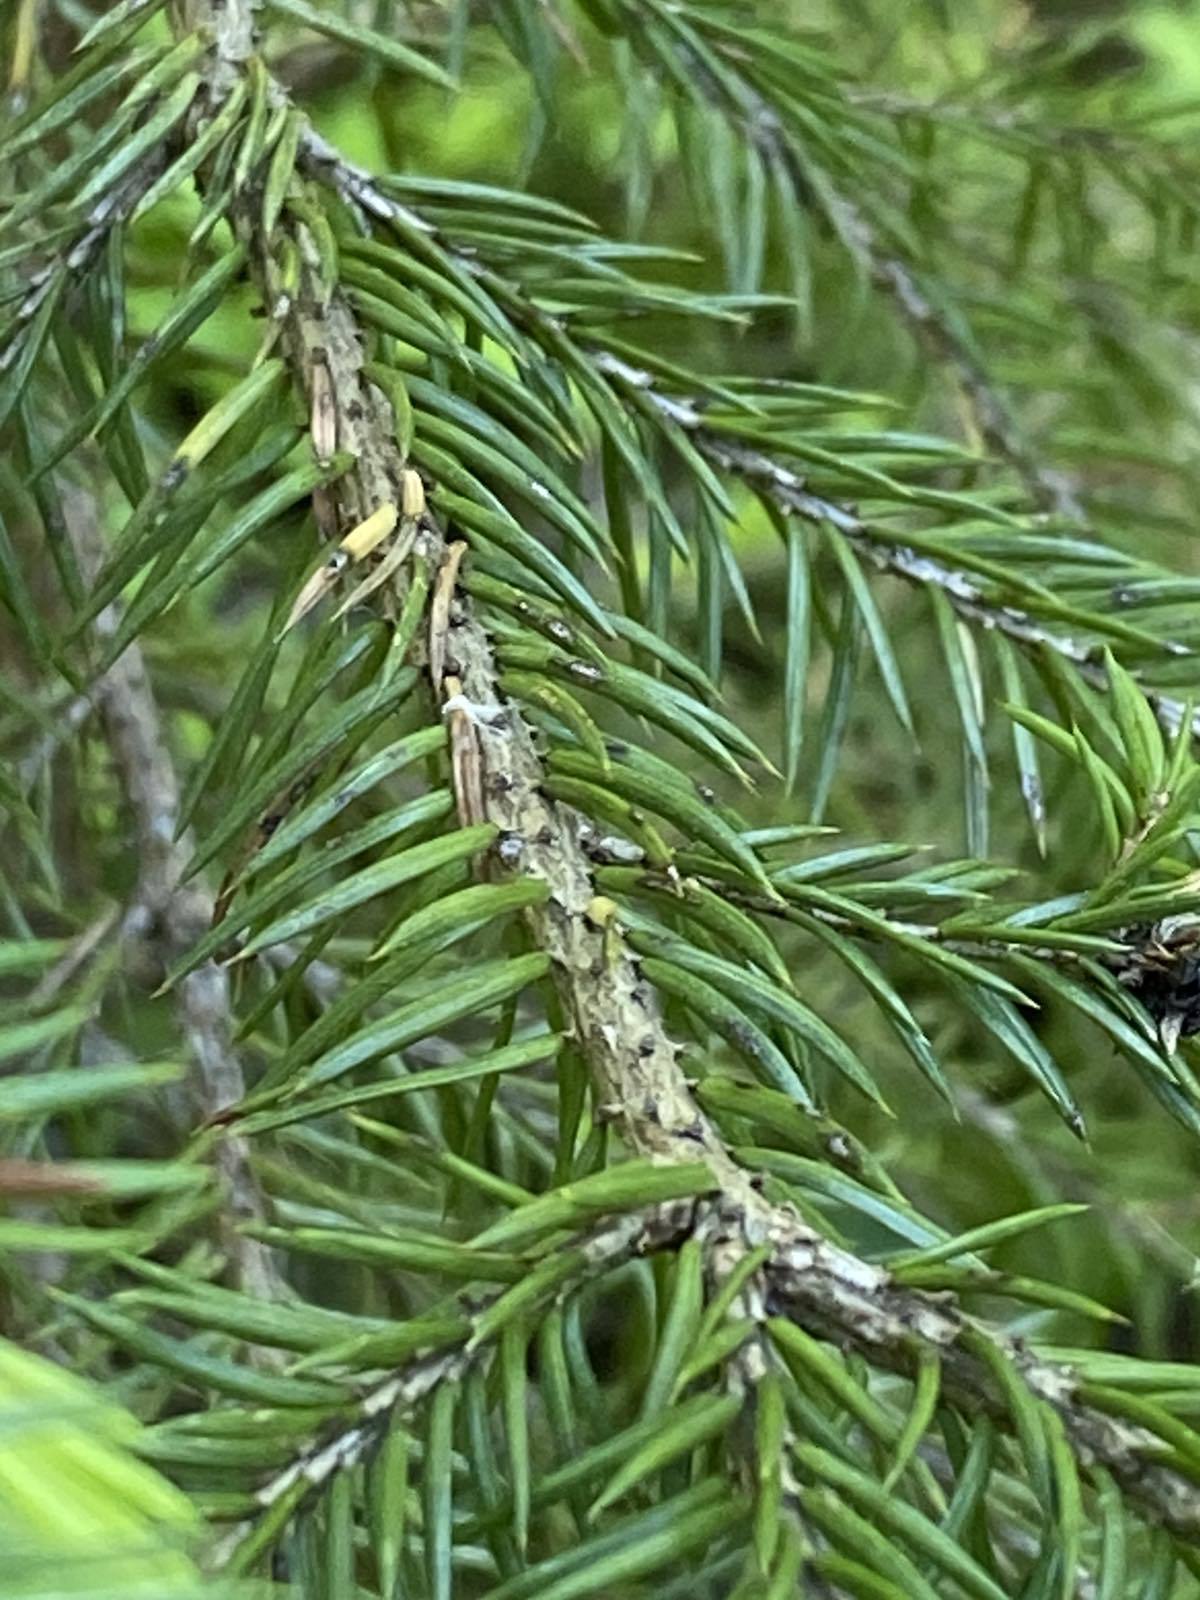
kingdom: Plantae
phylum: Tracheophyta
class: Pinopsida
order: Pinales
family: Pinaceae
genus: Picea
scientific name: Picea obovata
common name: Siberian spruce
